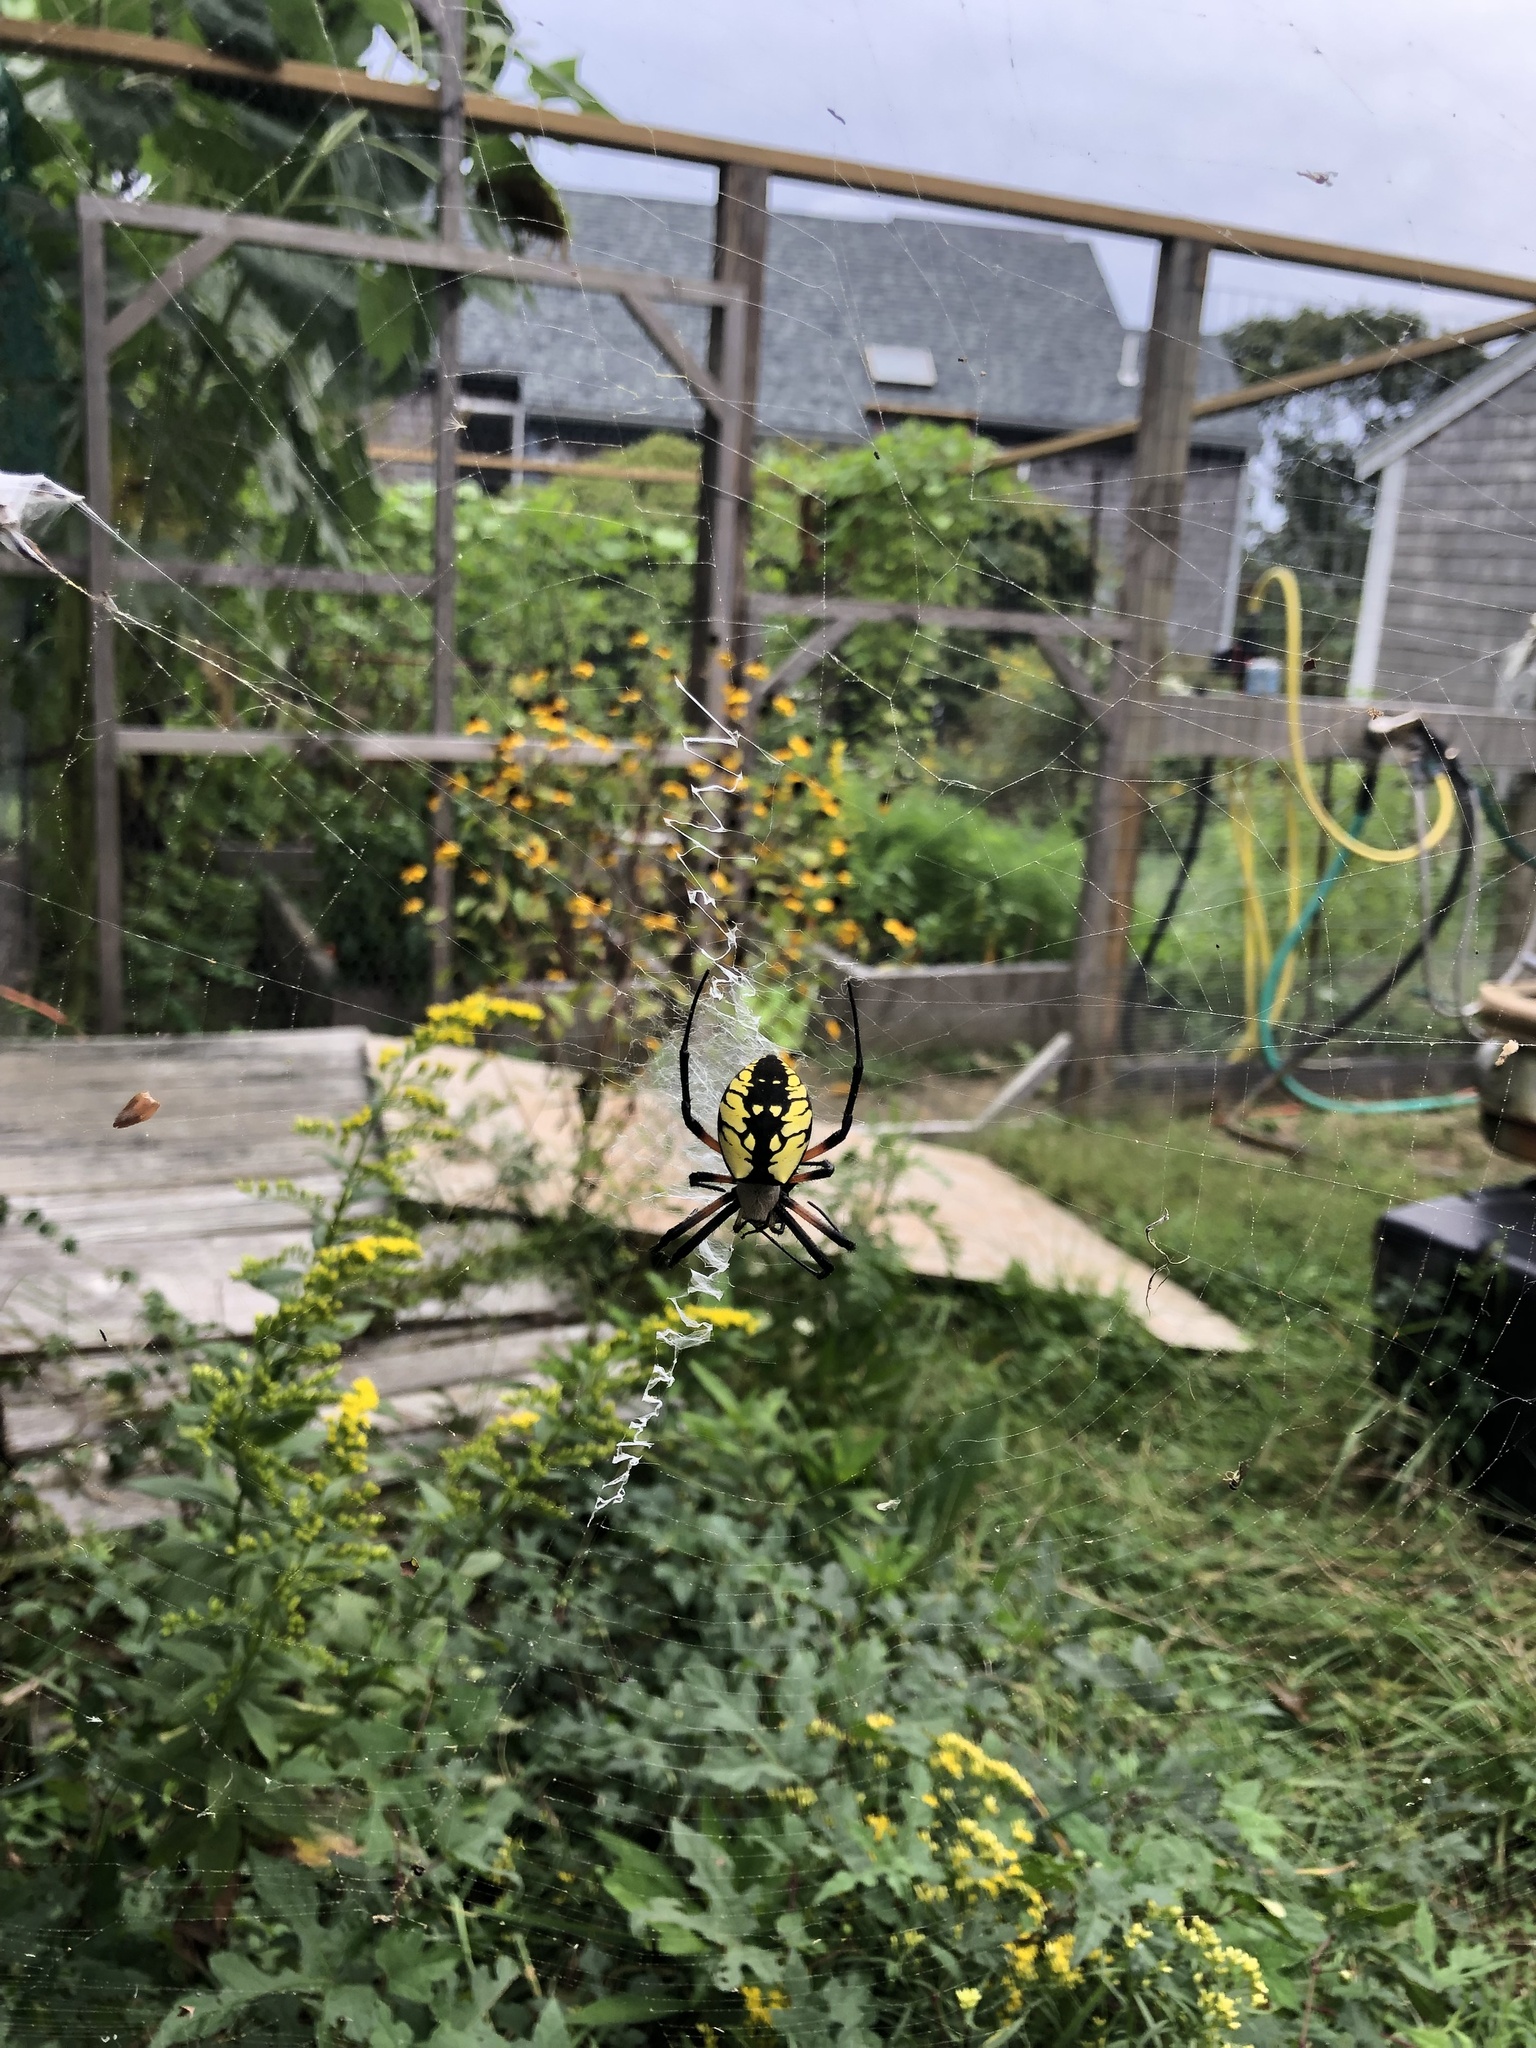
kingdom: Animalia
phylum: Arthropoda
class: Arachnida
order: Araneae
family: Araneidae
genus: Argiope
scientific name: Argiope aurantia
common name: Orb weavers
